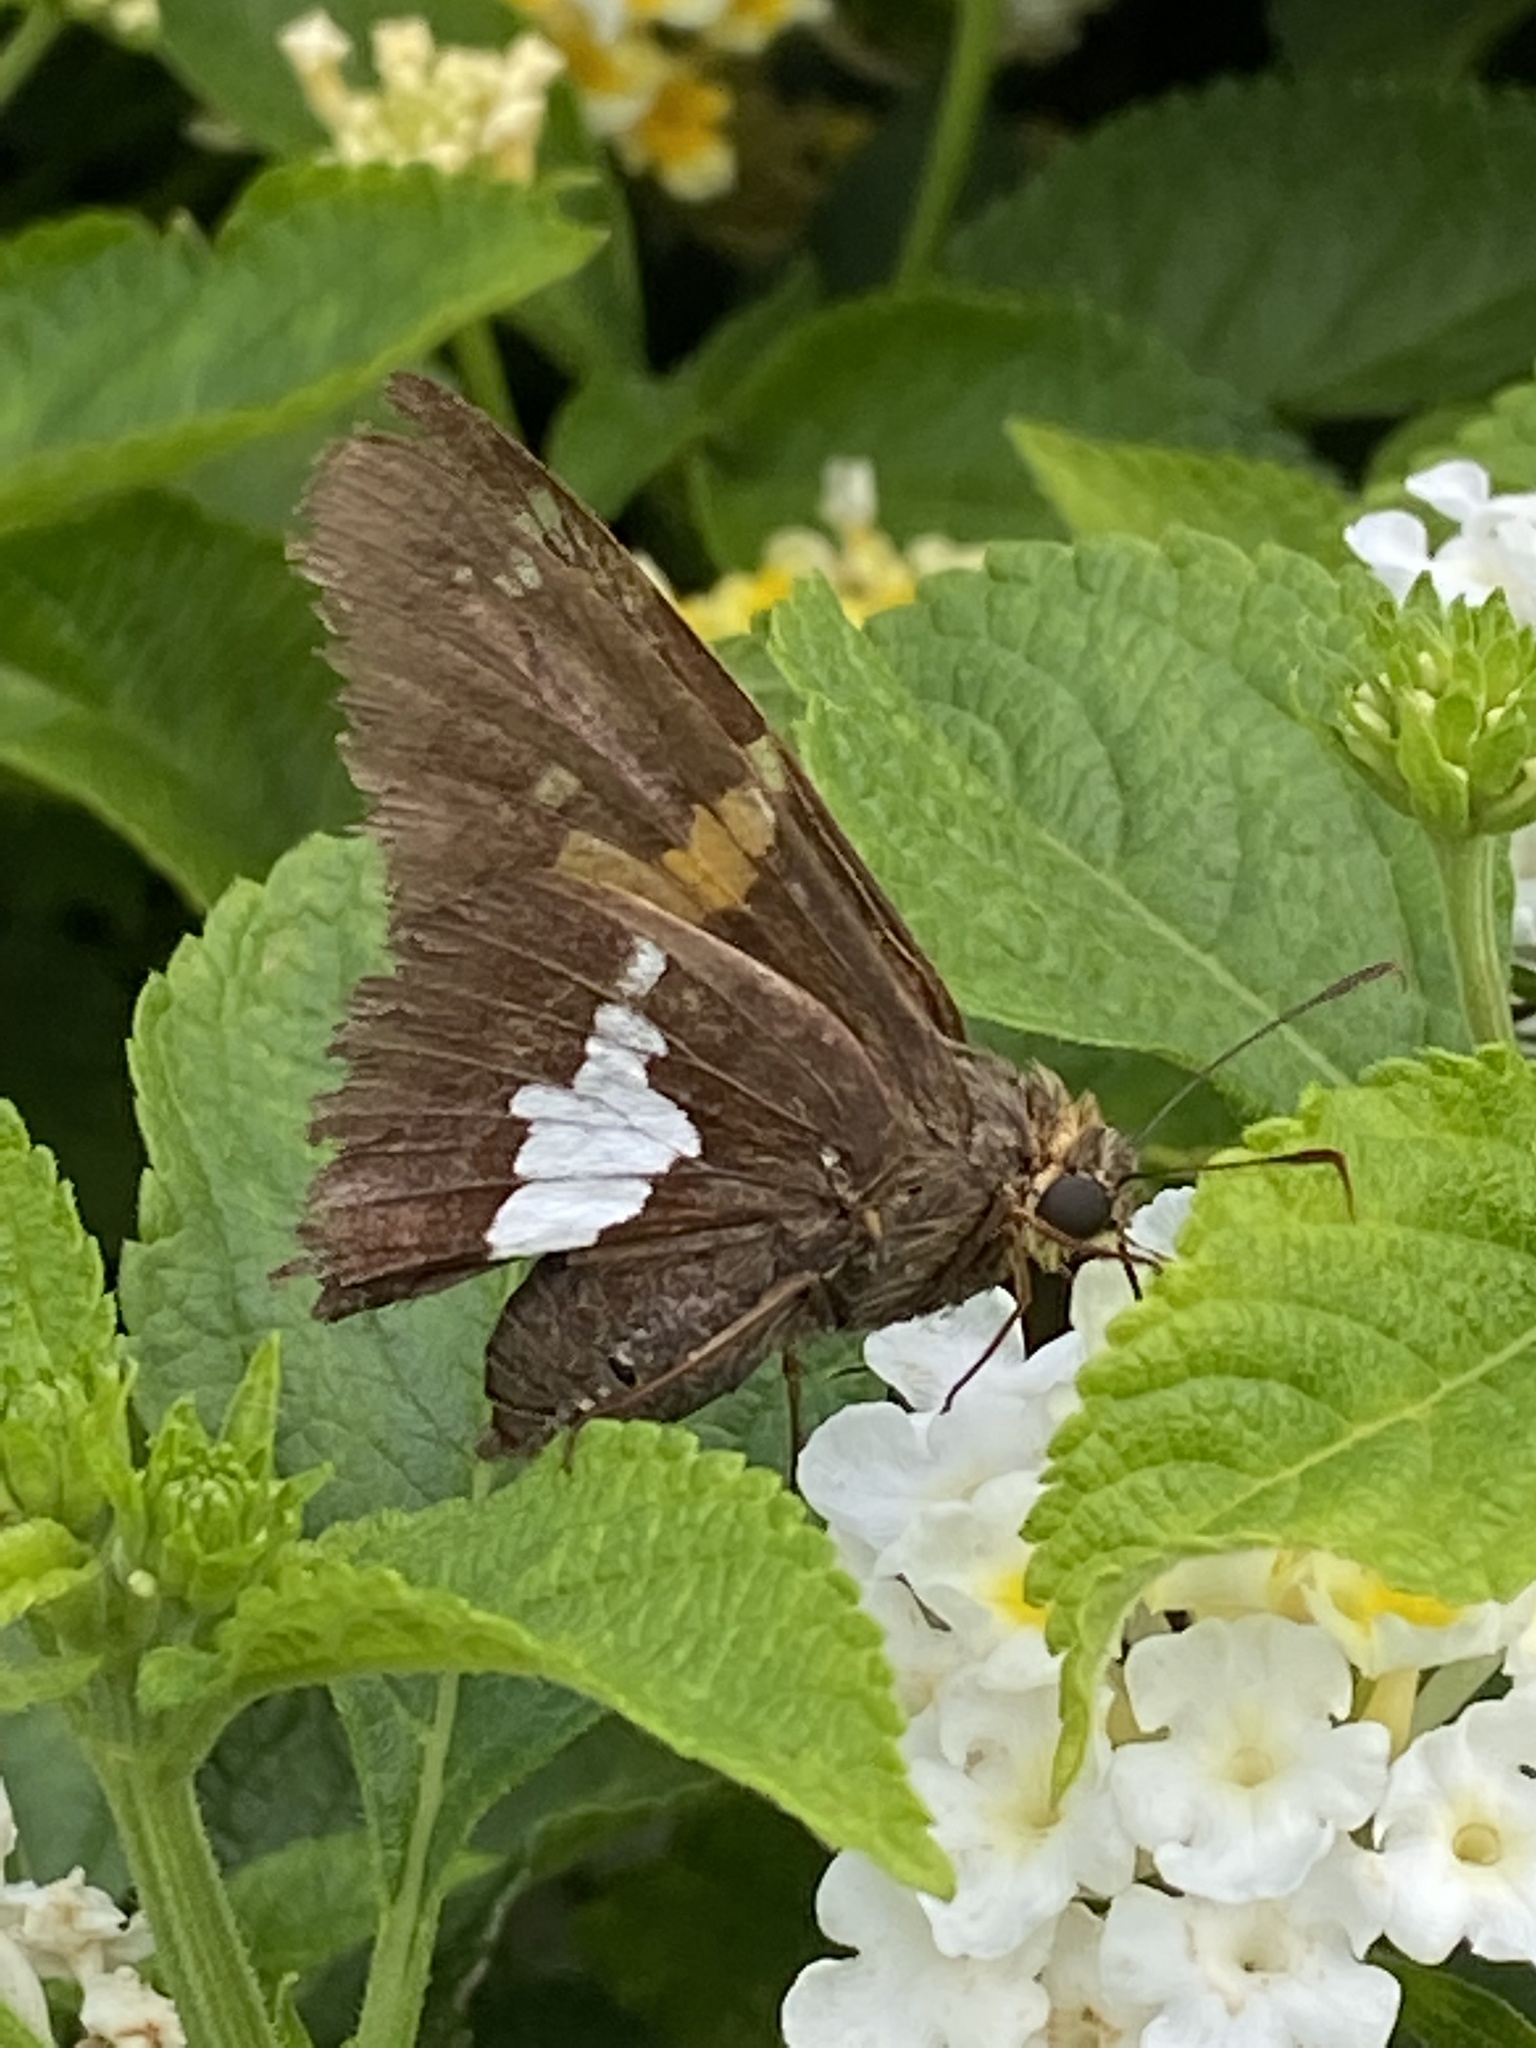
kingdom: Animalia
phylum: Arthropoda
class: Insecta
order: Lepidoptera
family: Hesperiidae
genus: Epargyreus
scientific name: Epargyreus clarus
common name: Silver-spotted skipper
